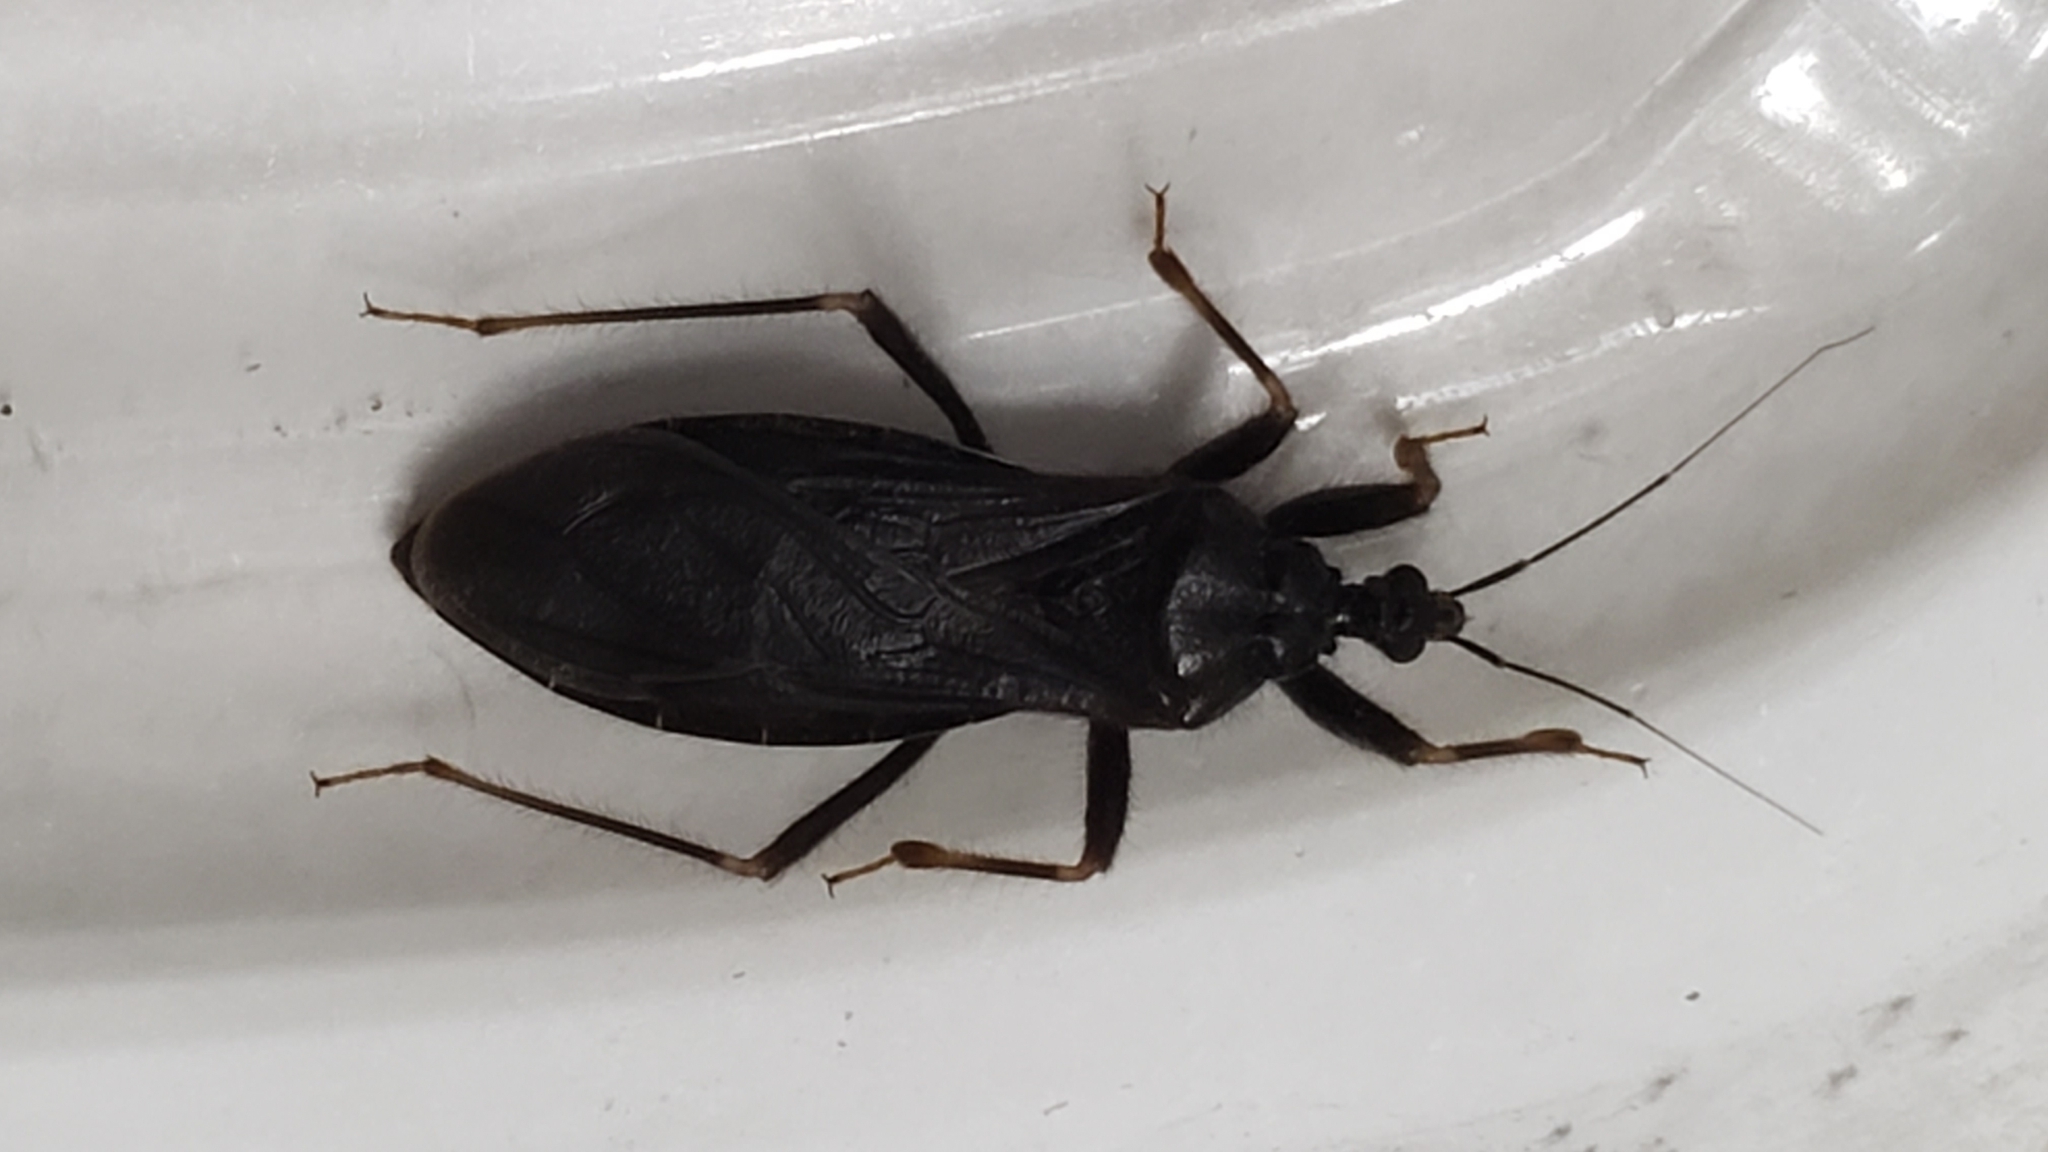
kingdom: Animalia
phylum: Arthropoda
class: Insecta
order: Hemiptera
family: Reduviidae
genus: Reduvius
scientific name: Reduvius personatus
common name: Masked hunter
